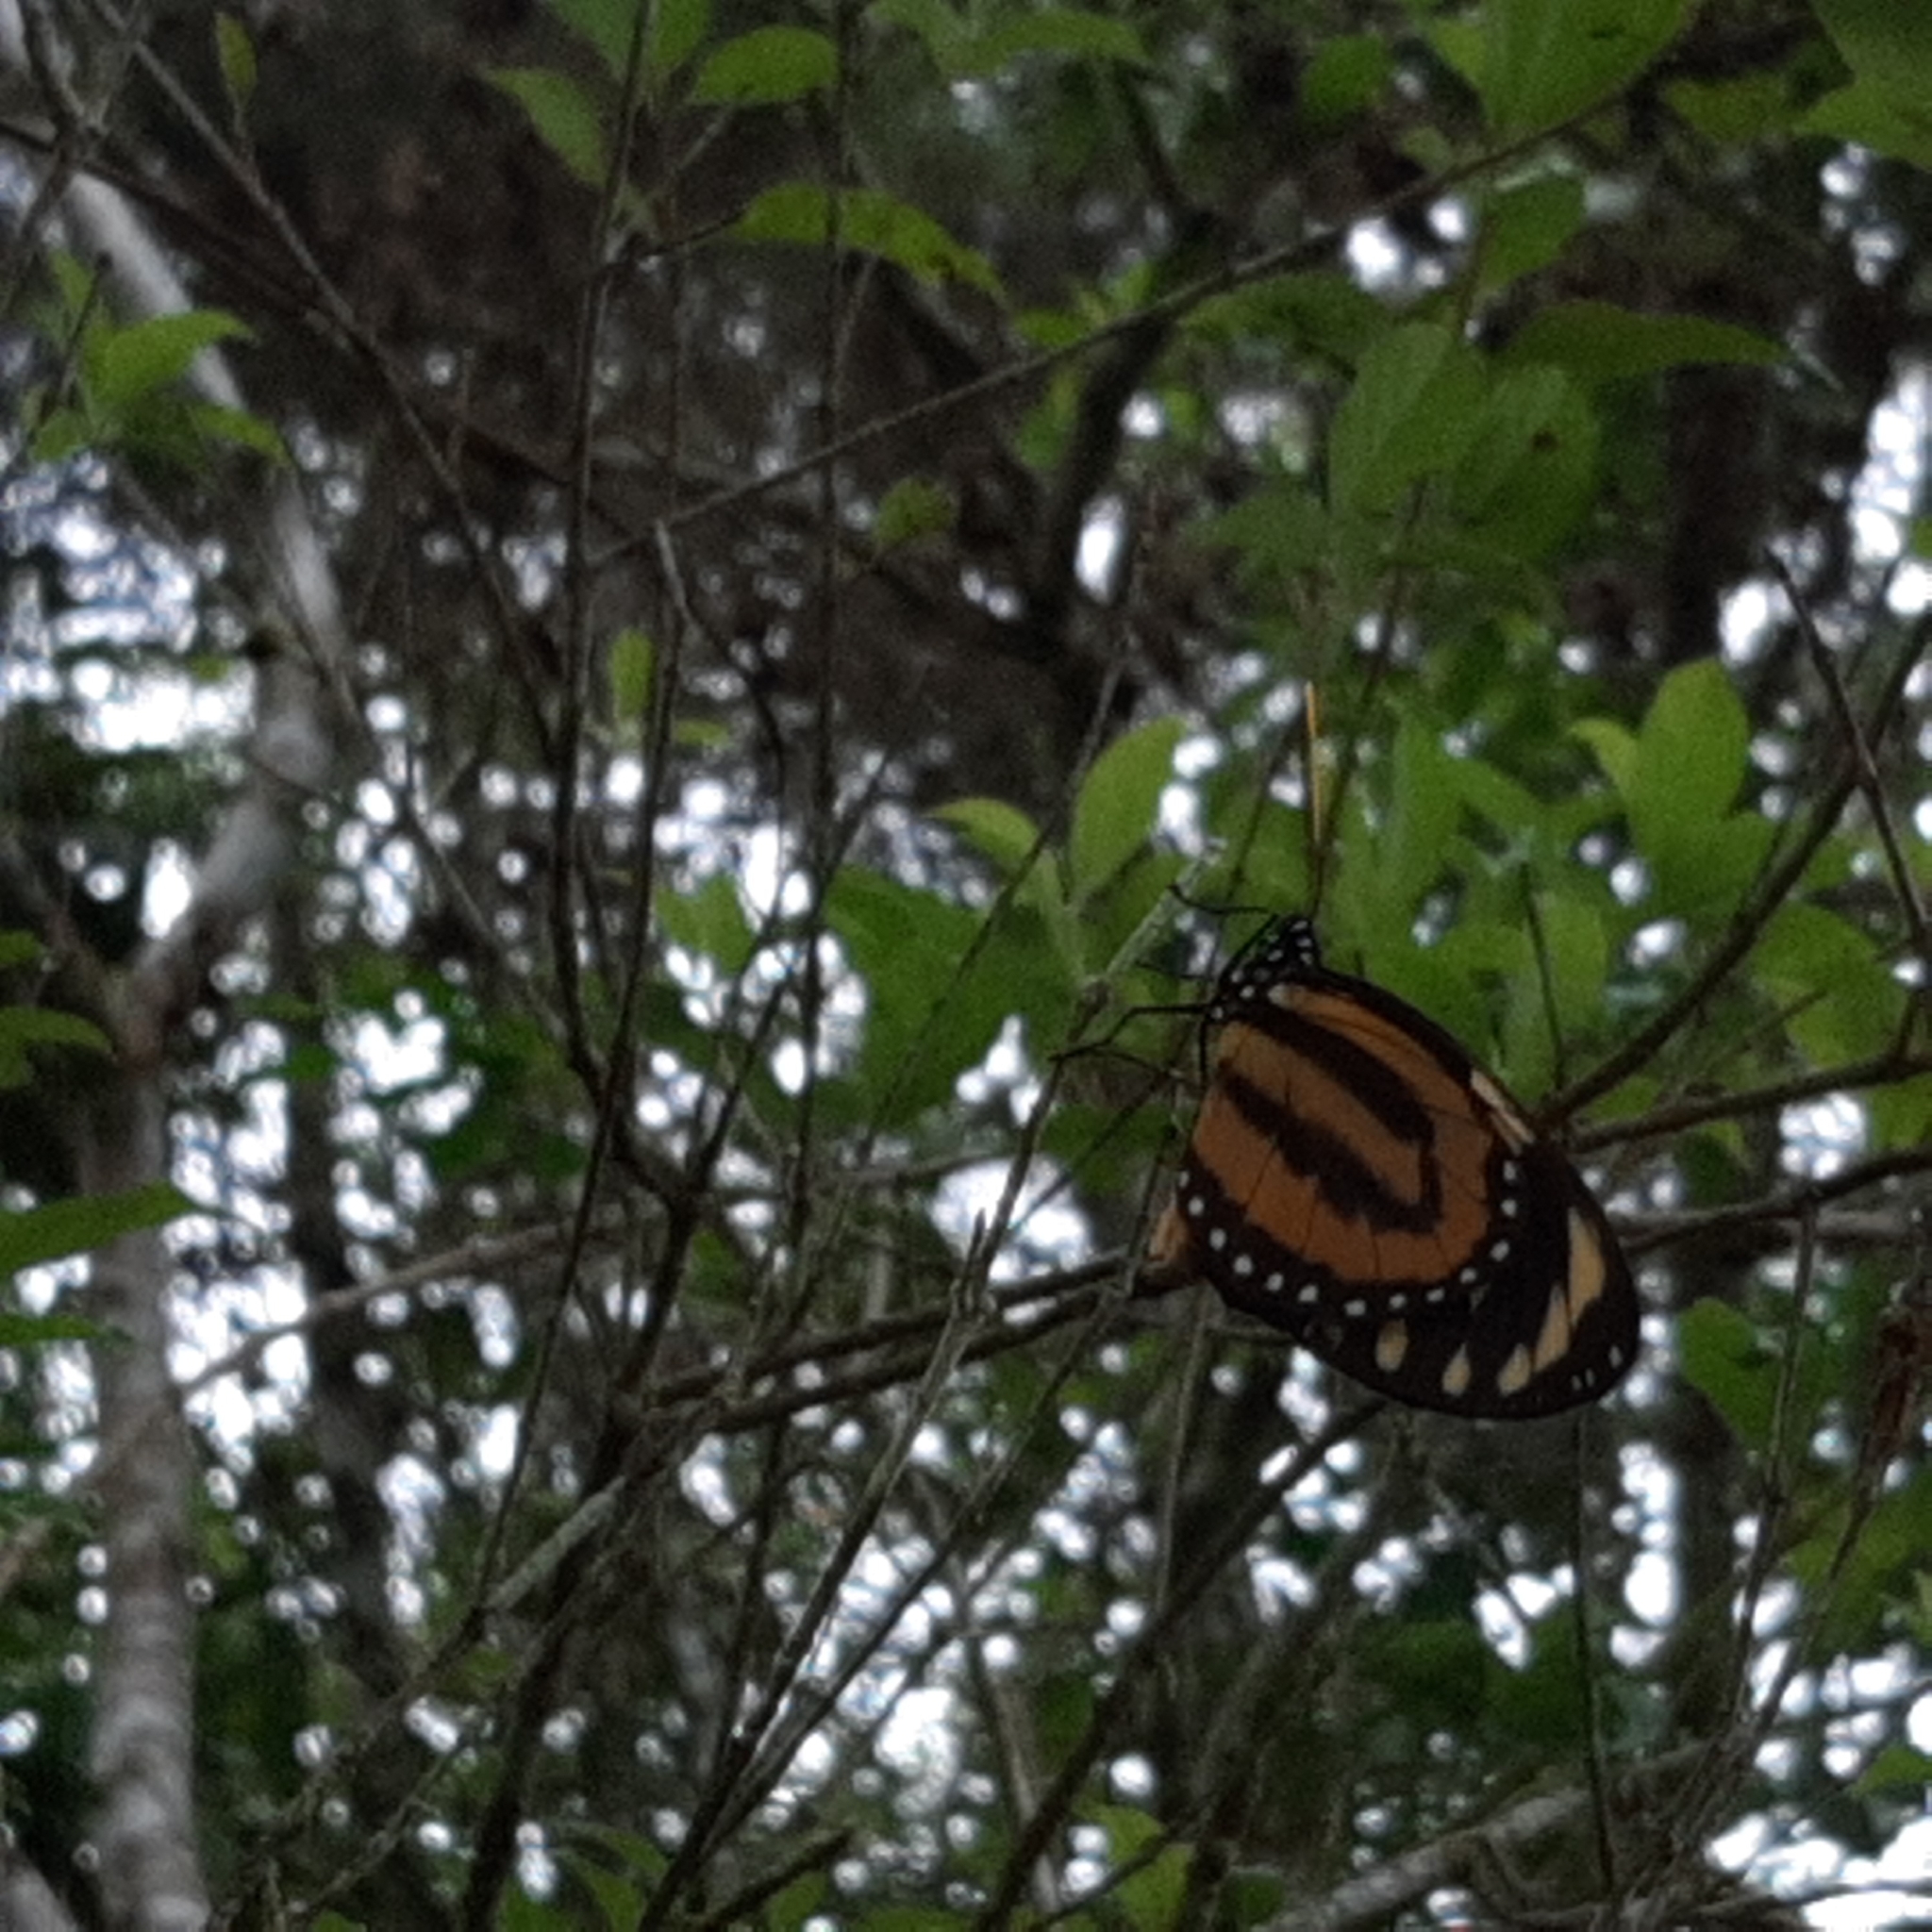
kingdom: Animalia
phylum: Arthropoda
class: Insecta
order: Lepidoptera
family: Nymphalidae
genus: Lycorea
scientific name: Lycorea cleobaea
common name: Tiger mimic-queen
